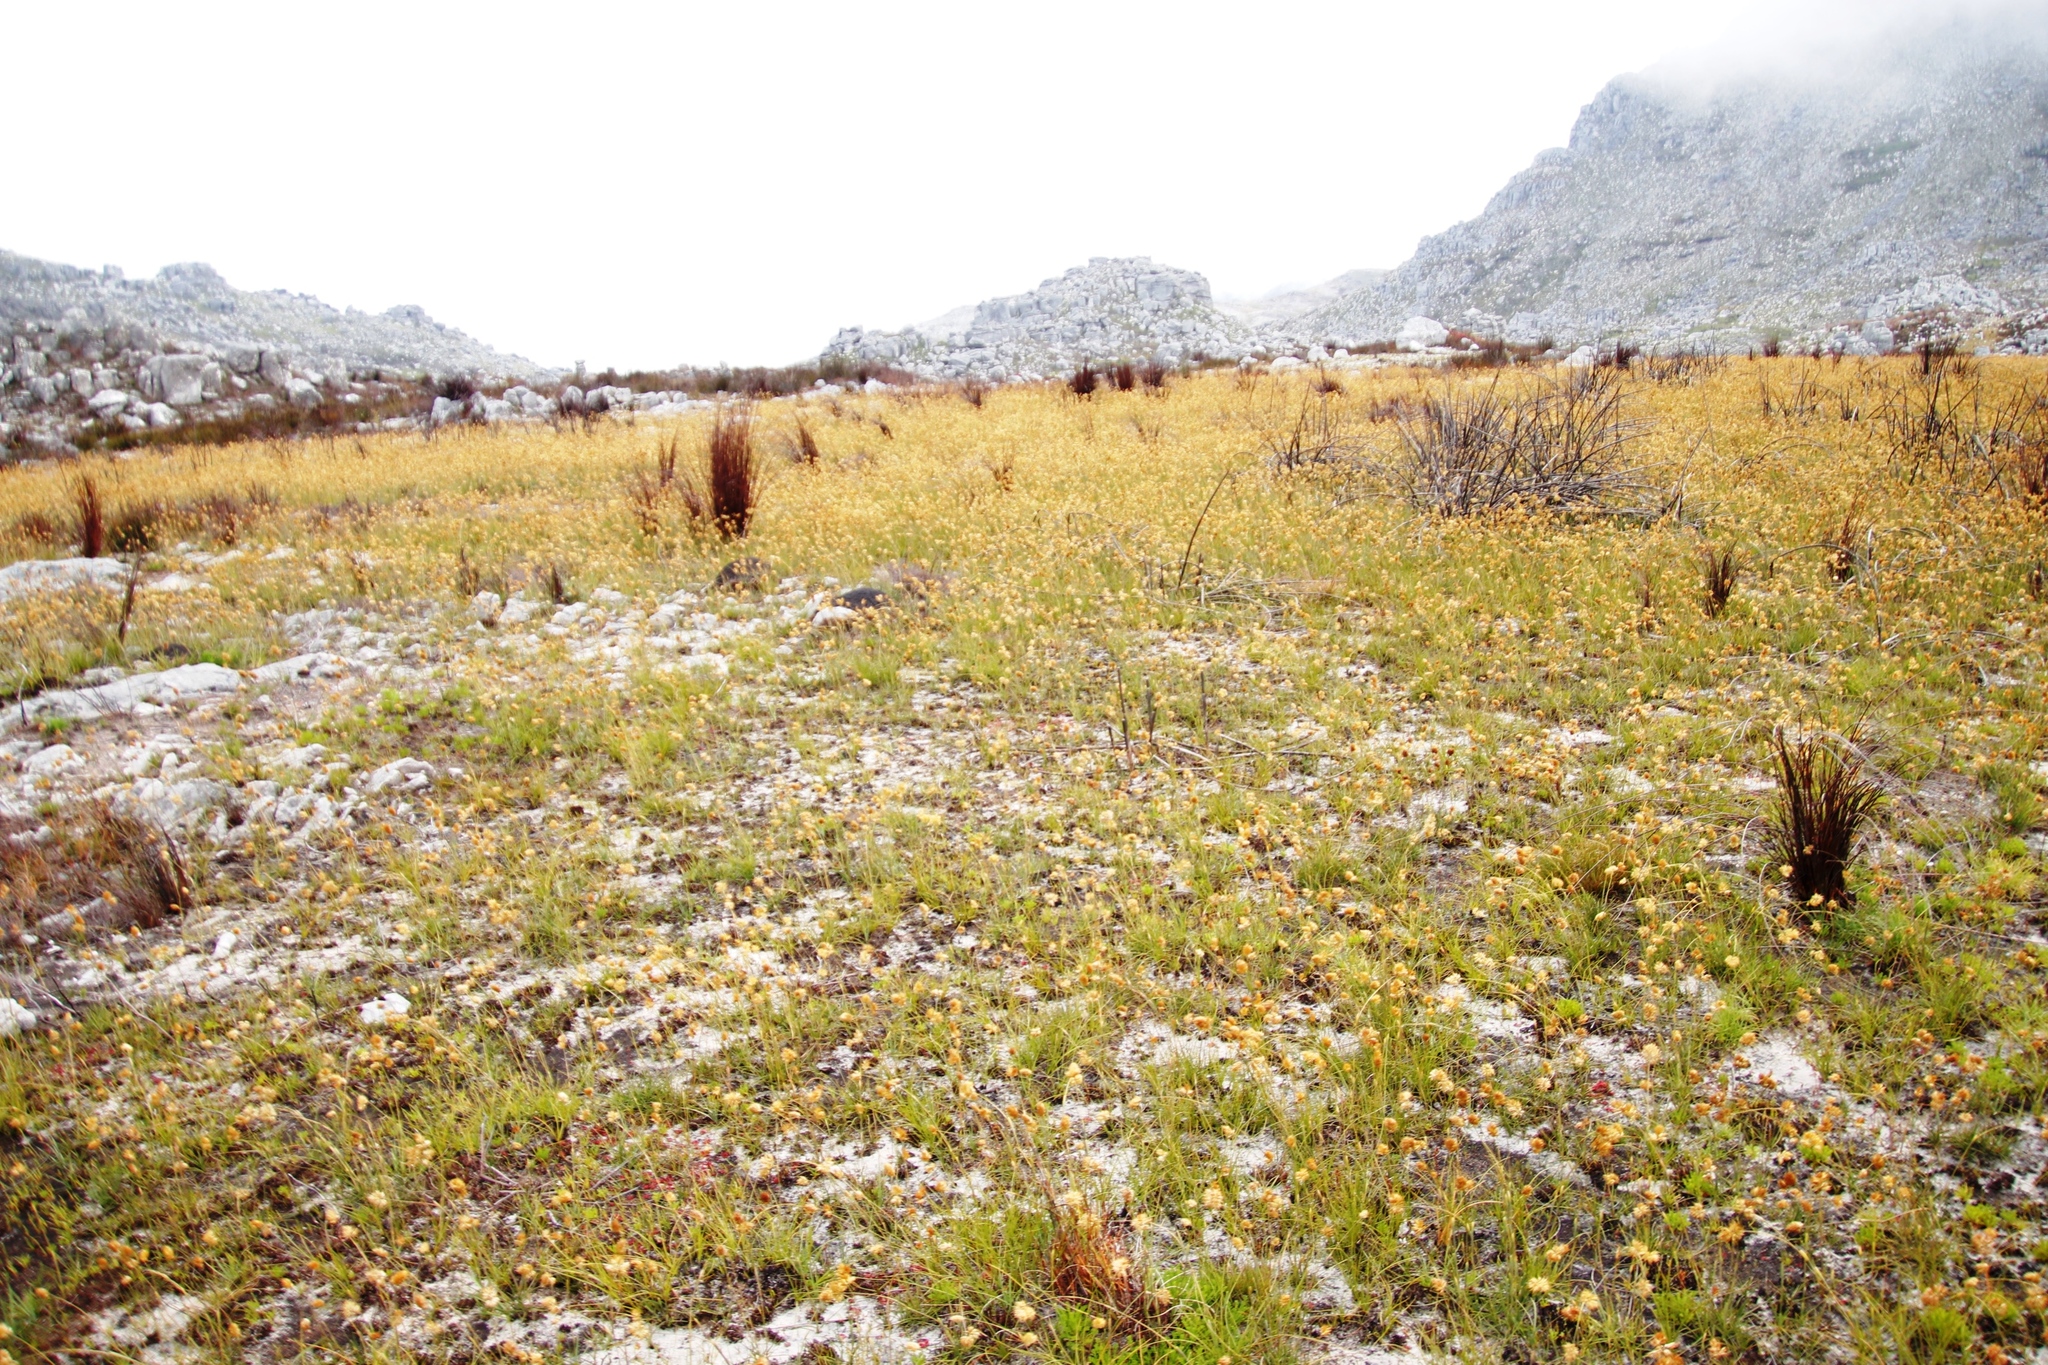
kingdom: Plantae
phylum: Tracheophyta
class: Liliopsida
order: Poales
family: Poaceae
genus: Geochloa
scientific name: Geochloa rufa
